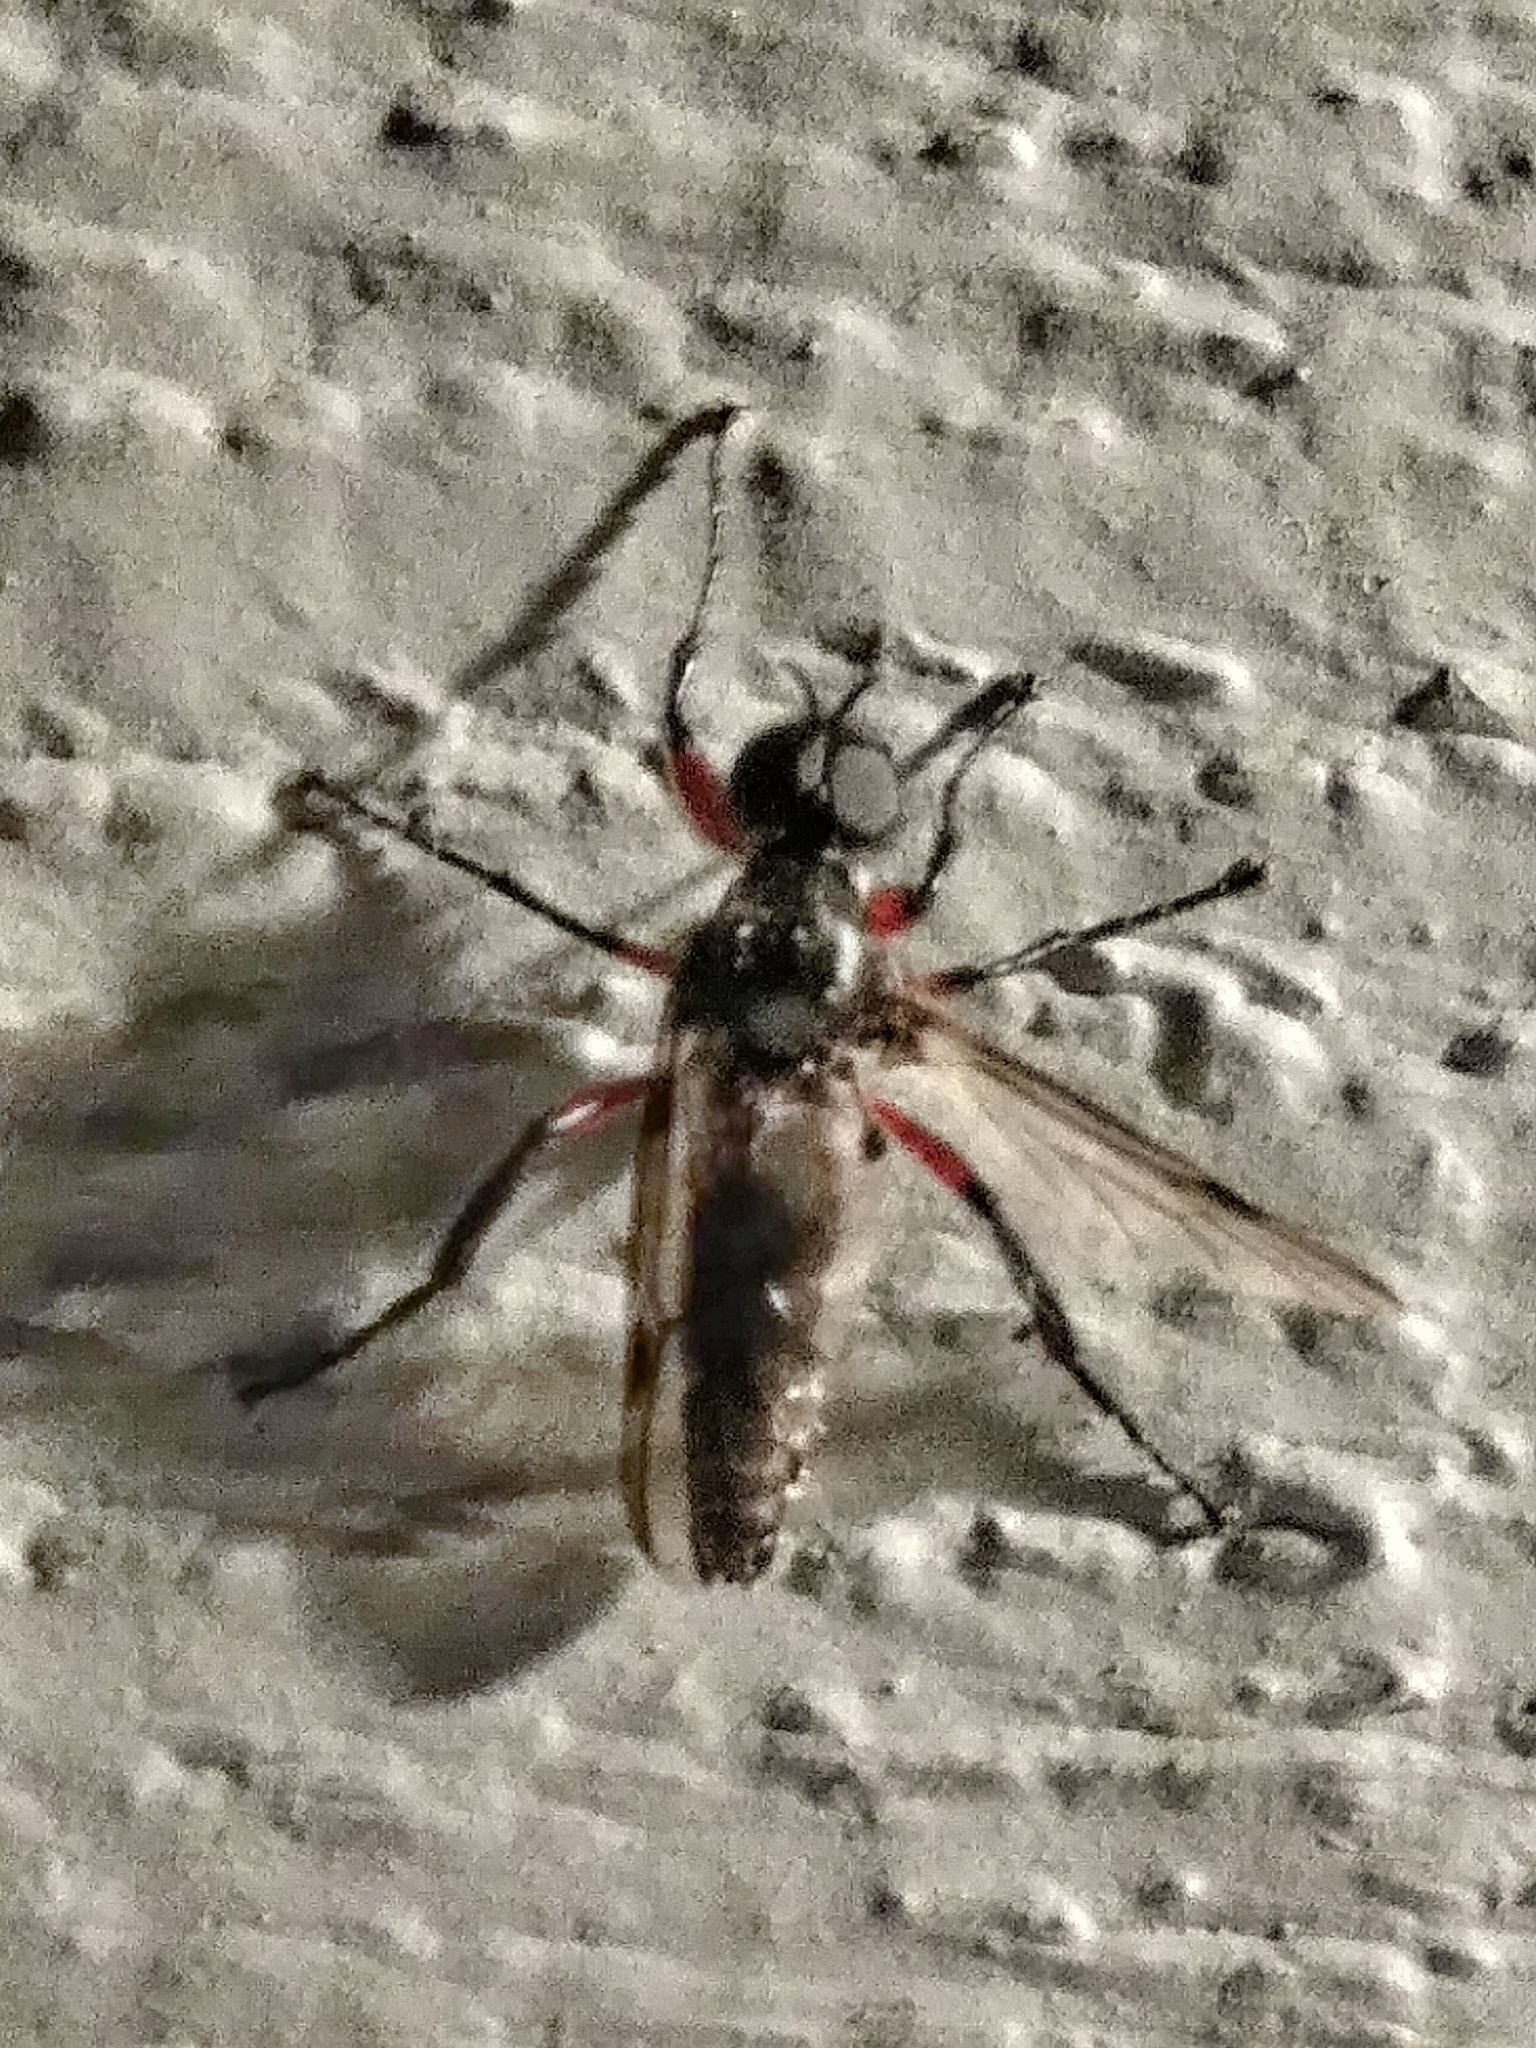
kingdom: Animalia
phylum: Arthropoda
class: Insecta
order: Diptera
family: Bibionidae
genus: Bibio
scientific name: Bibio femoratus
